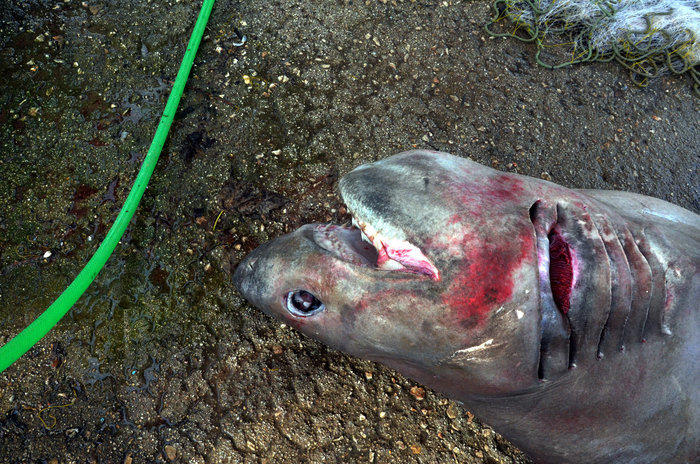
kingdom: Animalia
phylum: Chordata
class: Elasmobranchii
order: Hexanchiformes
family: Hexanchidae
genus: Hexanchus
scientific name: Hexanchus griseus
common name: Bluntnose sixgill shark
